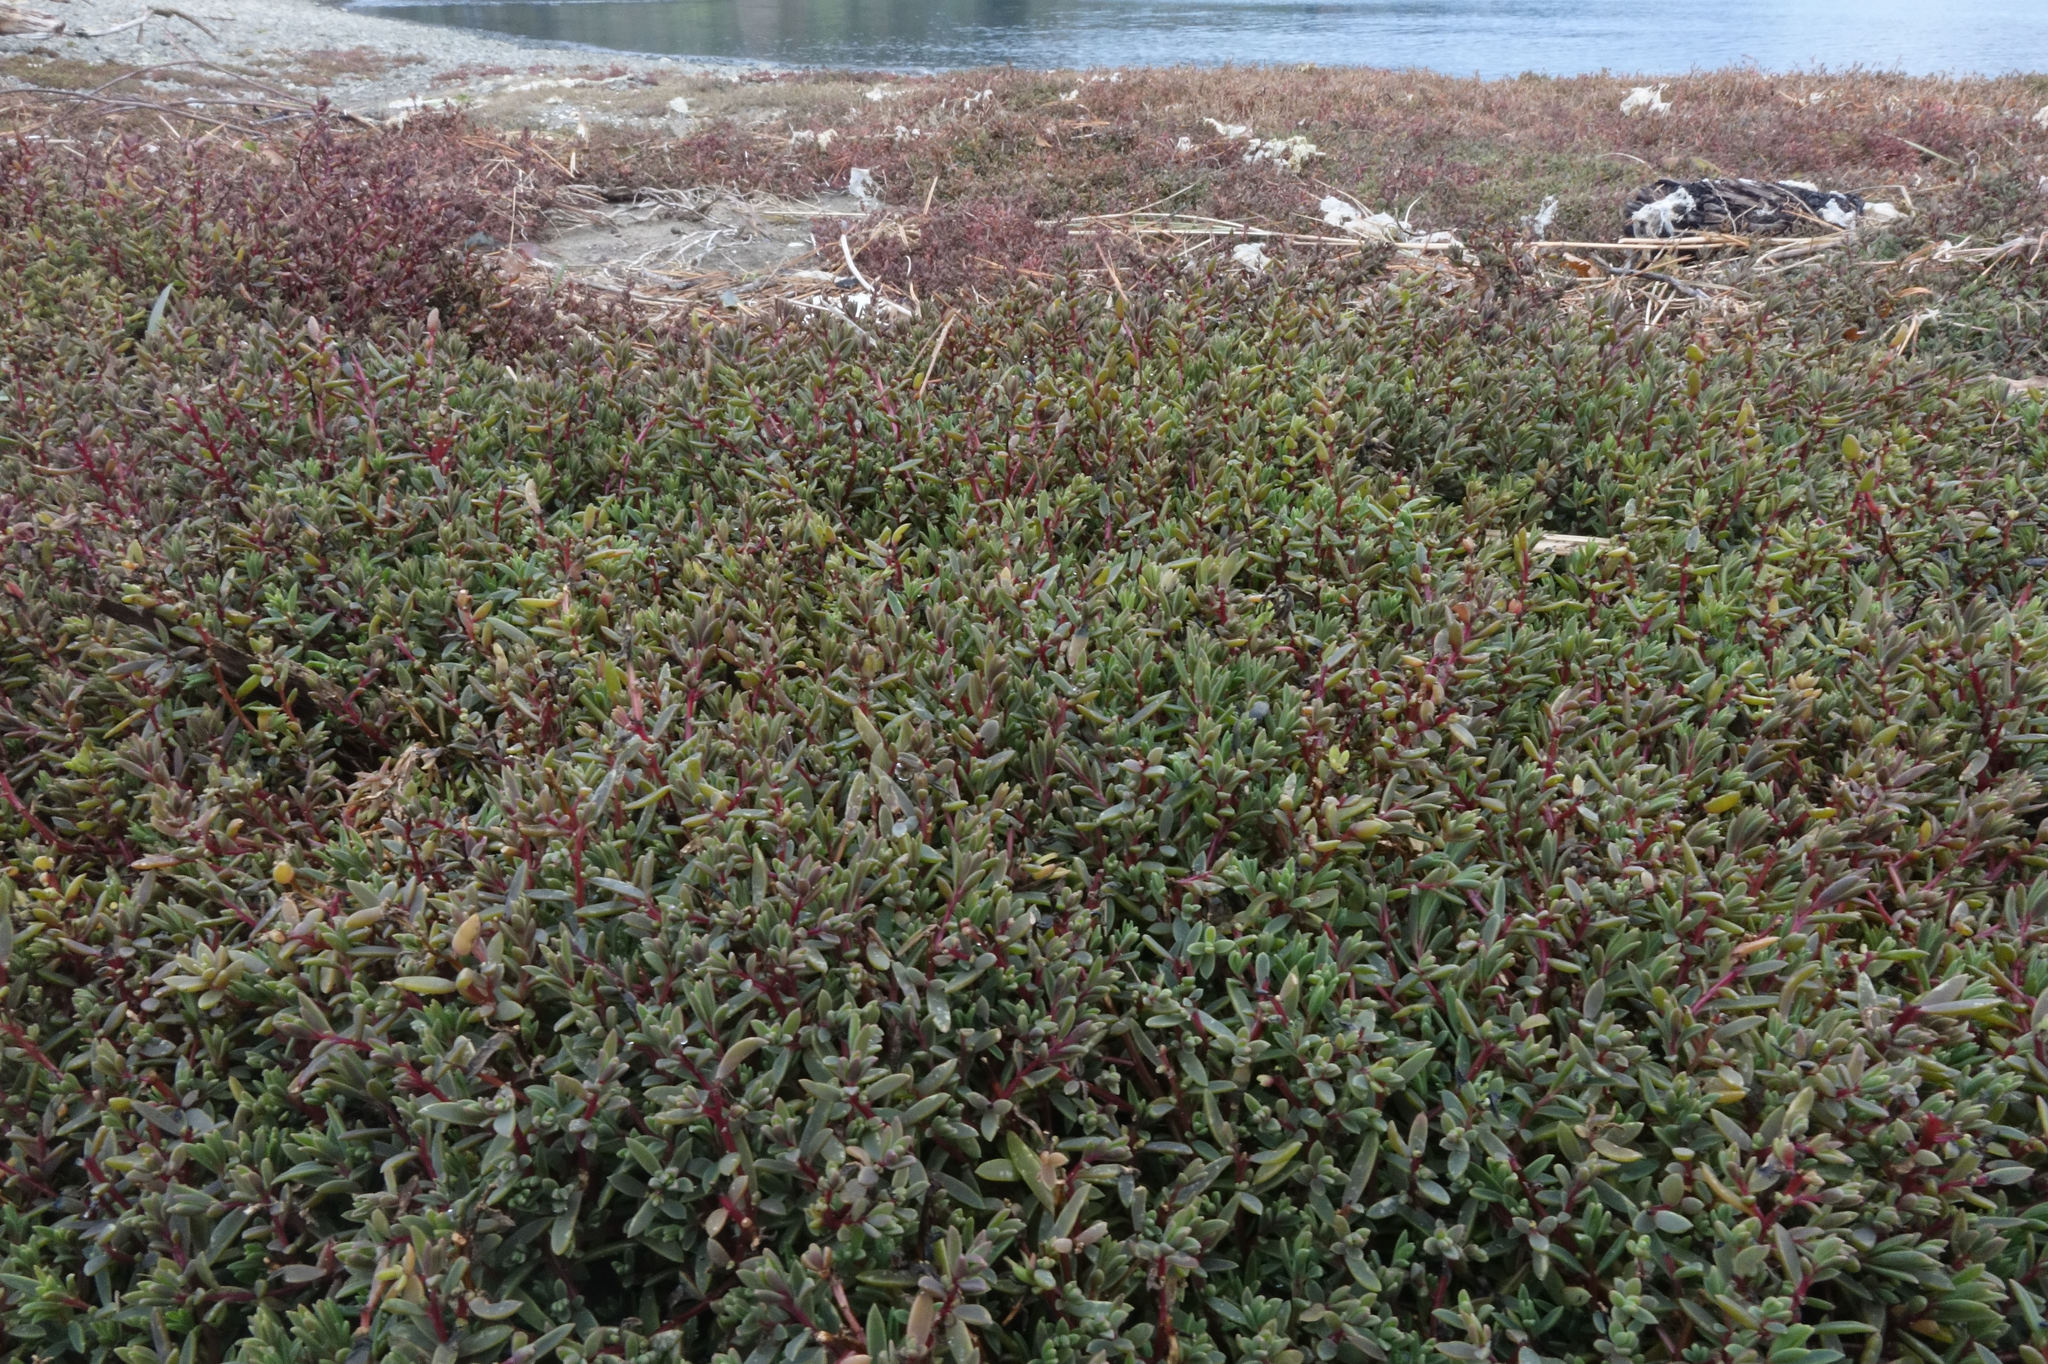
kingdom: Plantae
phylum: Tracheophyta
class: Magnoliopsida
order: Caryophyllales
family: Amaranthaceae
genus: Suaeda
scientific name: Suaeda novae-zelandiae
